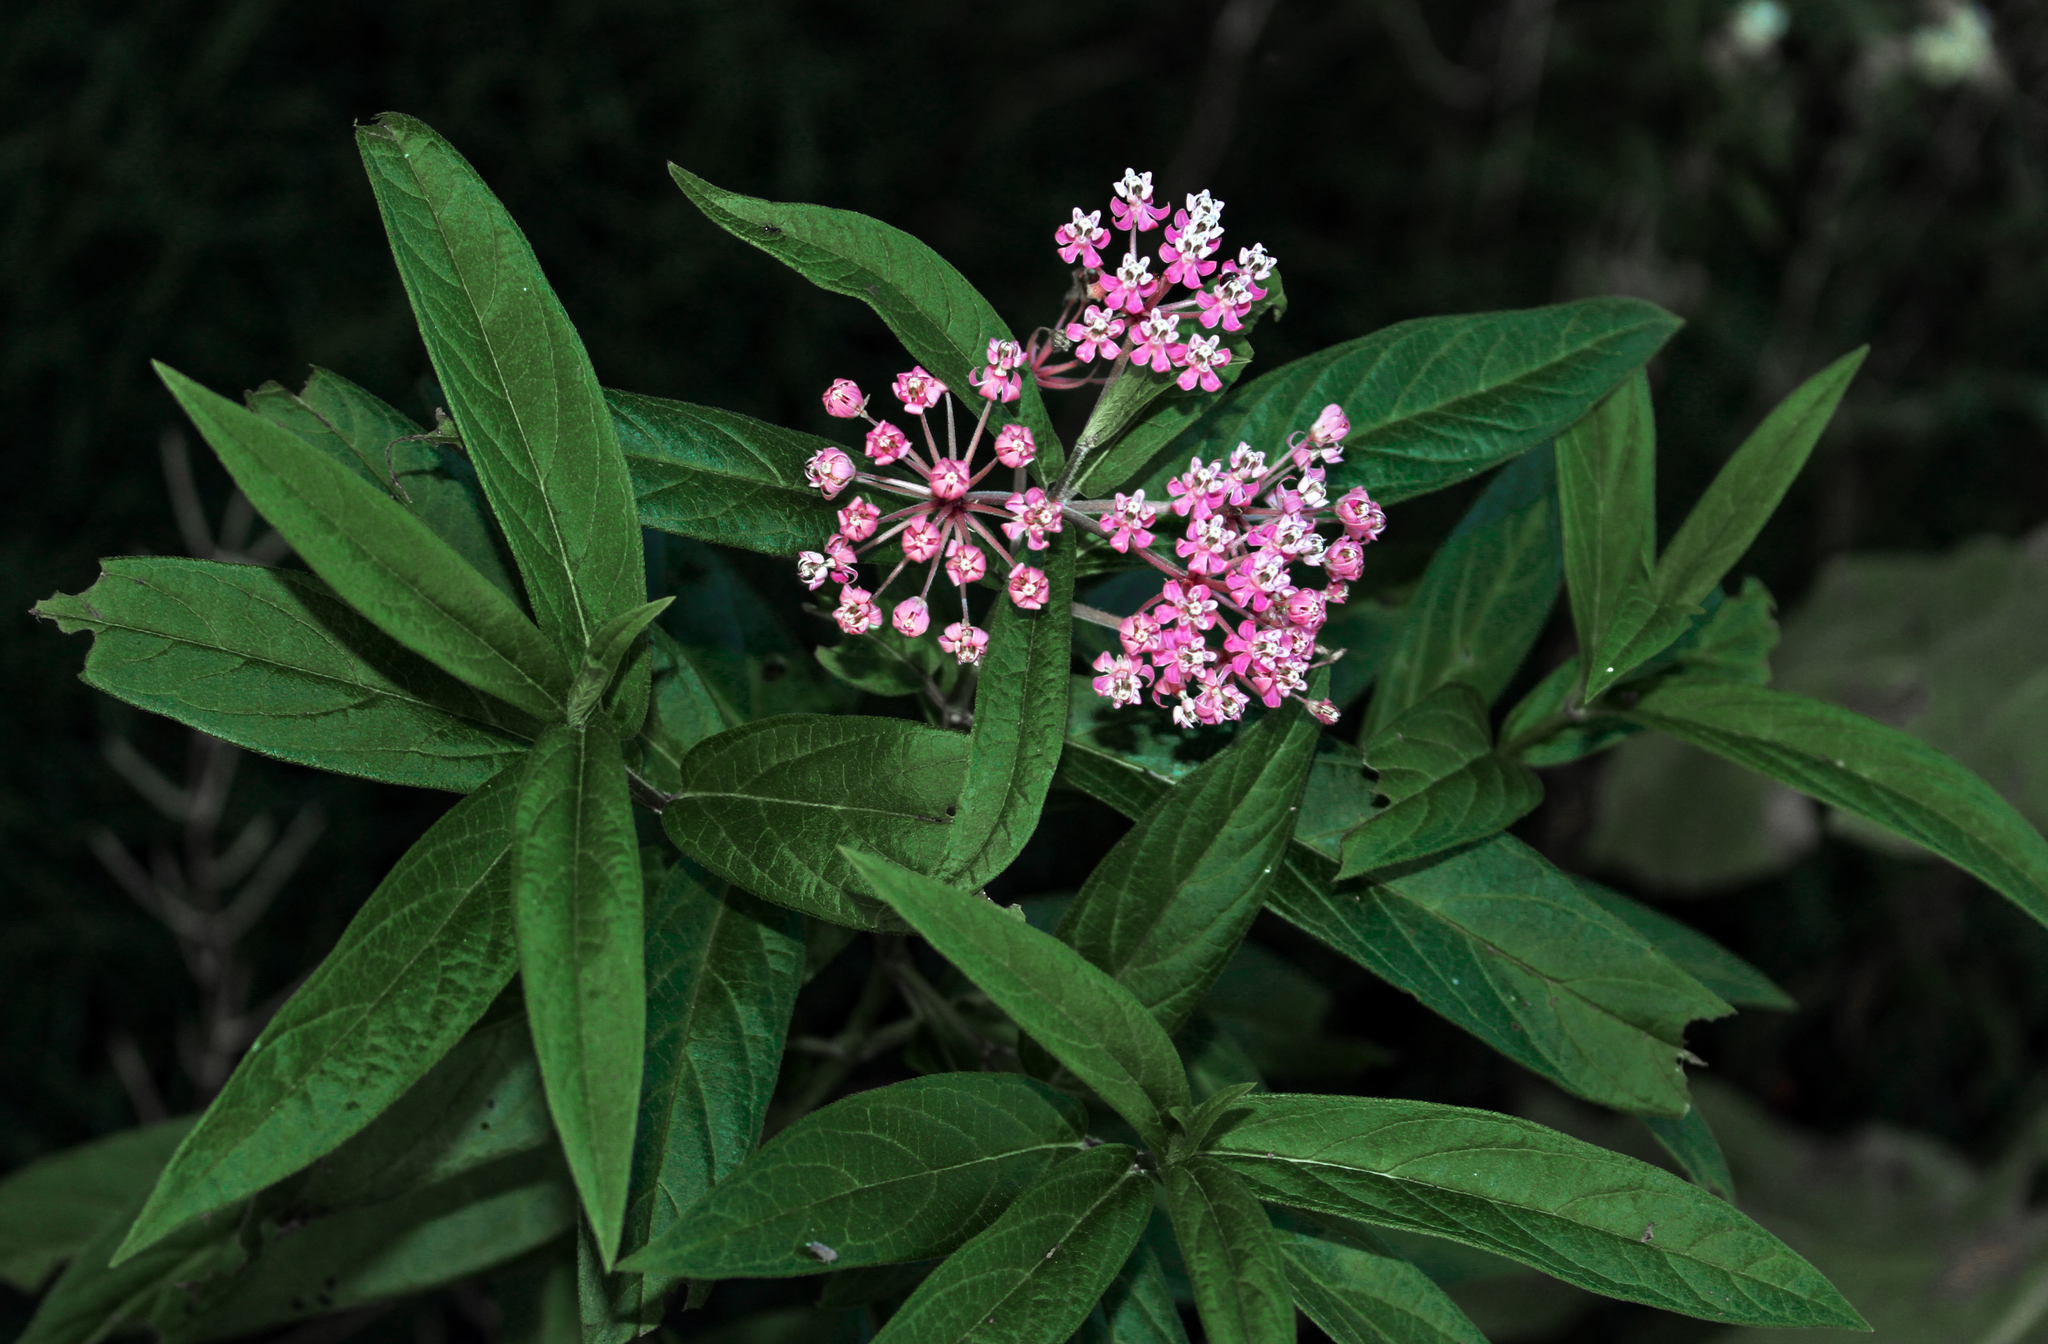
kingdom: Plantae
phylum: Tracheophyta
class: Magnoliopsida
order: Gentianales
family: Apocynaceae
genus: Asclepias
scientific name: Asclepias incarnata
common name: Swamp milkweed
